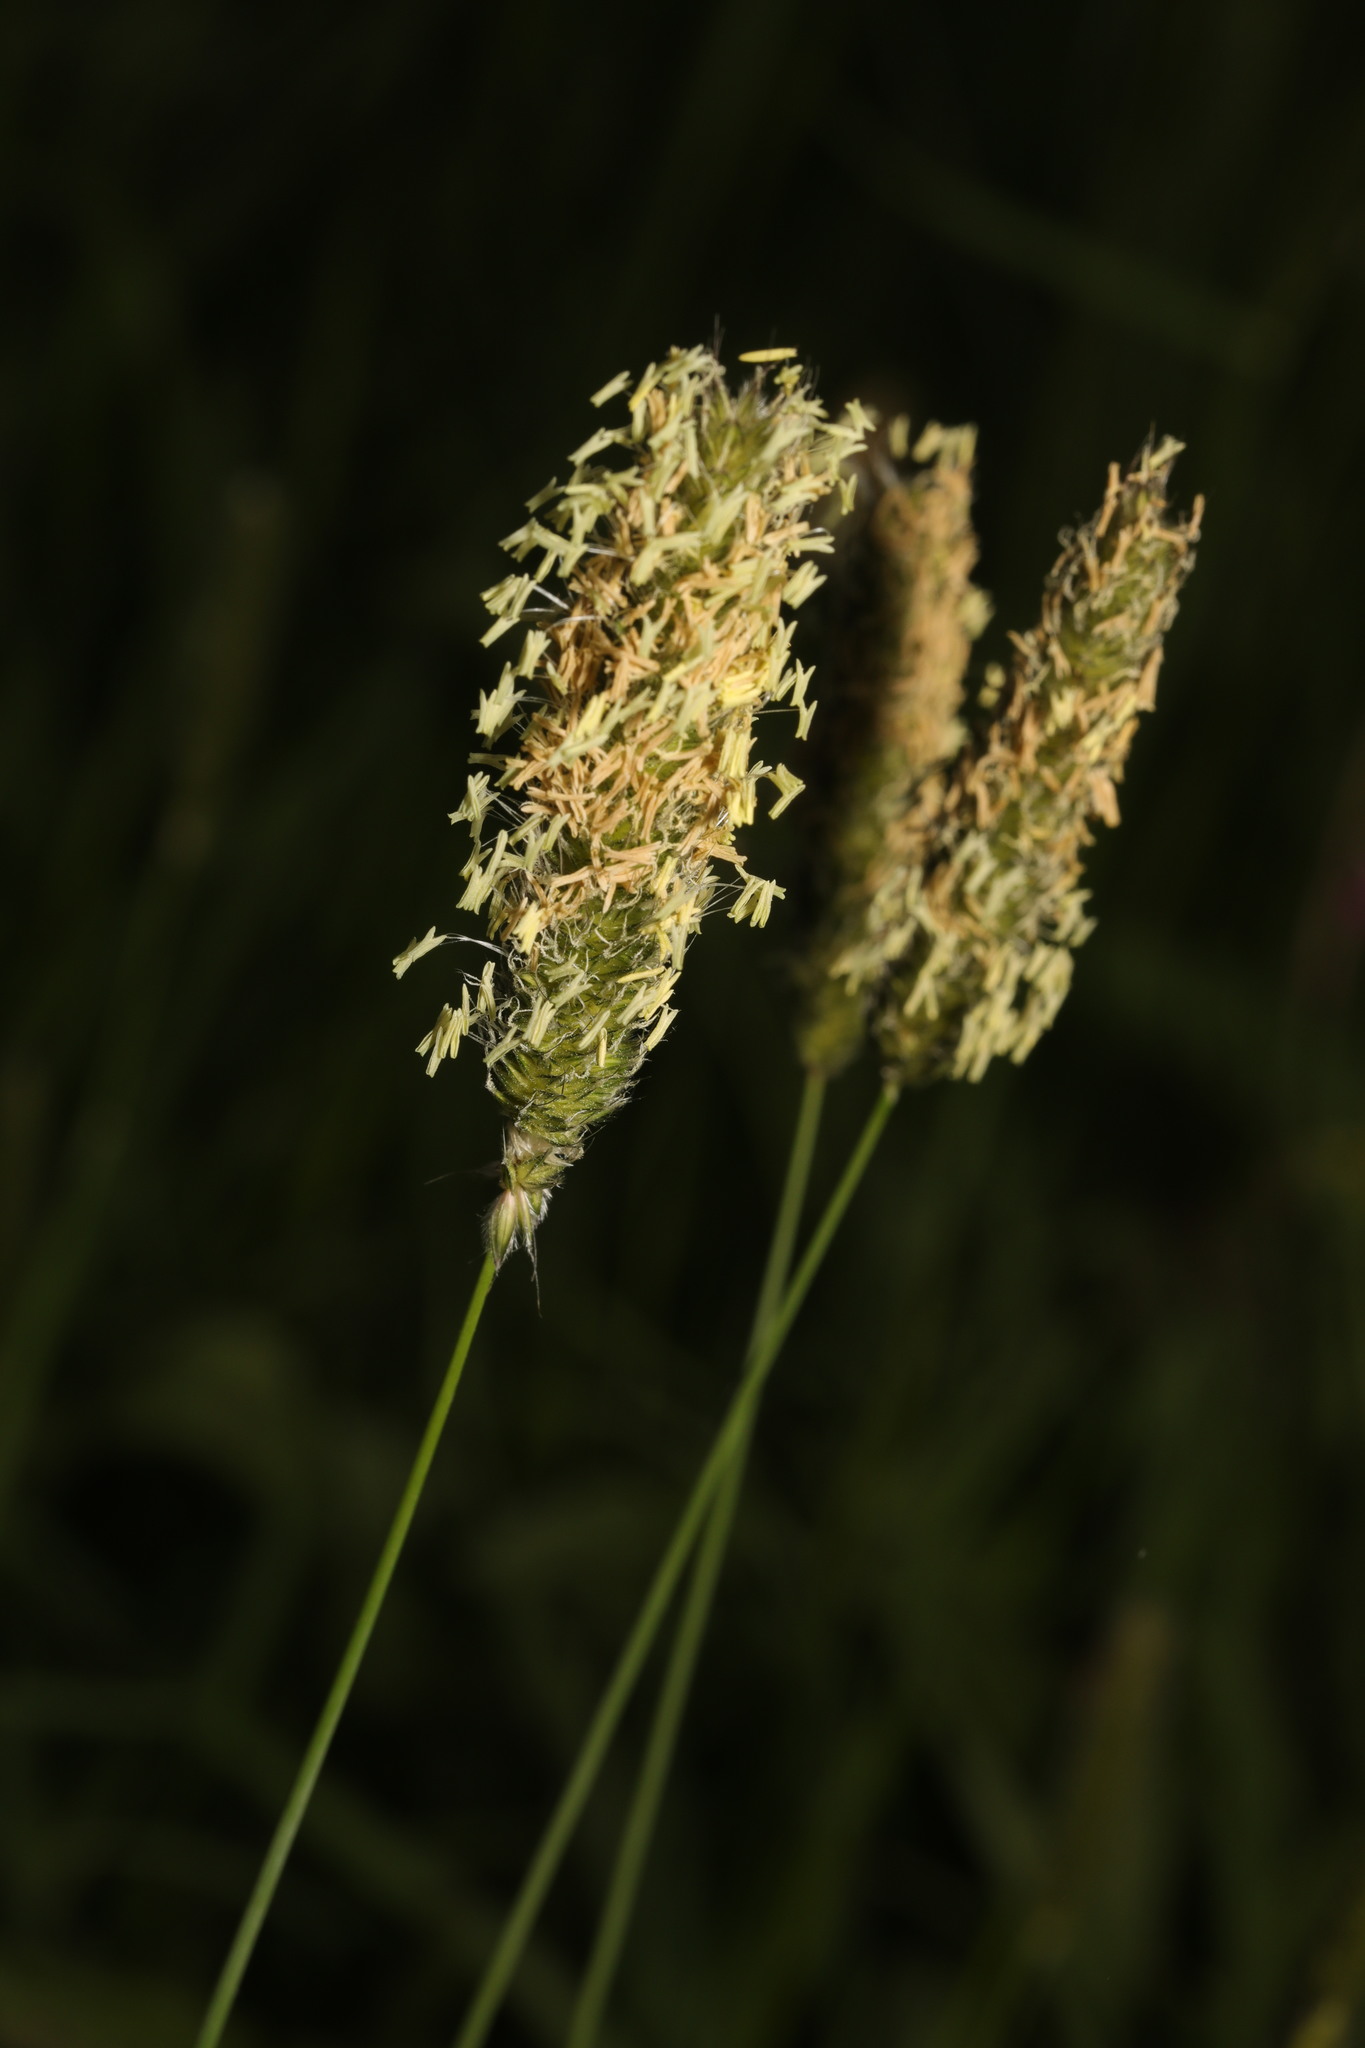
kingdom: Plantae
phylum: Tracheophyta
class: Liliopsida
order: Poales
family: Poaceae
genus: Alopecurus
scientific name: Alopecurus pratensis
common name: Meadow foxtail
